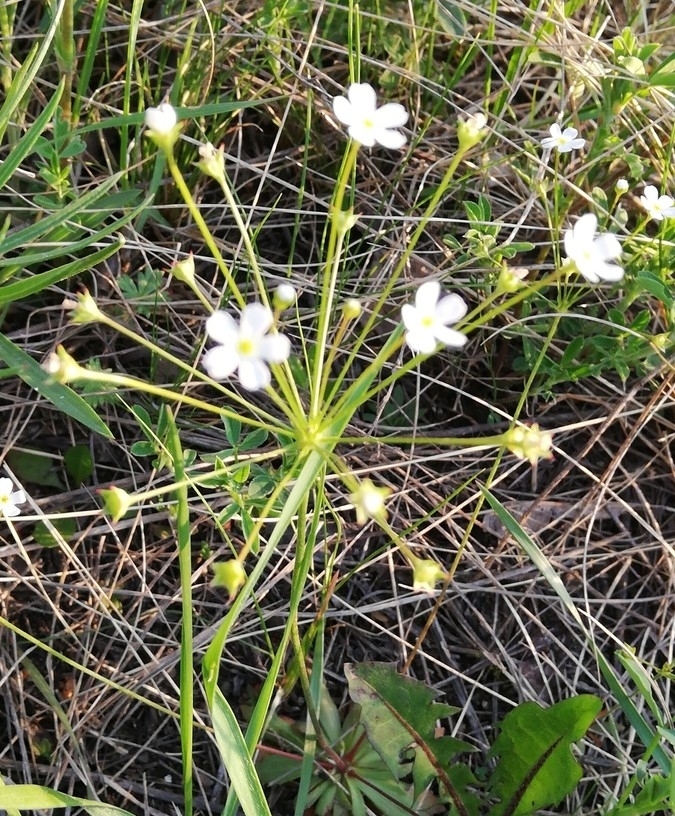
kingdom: Plantae
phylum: Tracheophyta
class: Magnoliopsida
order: Ericales
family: Primulaceae
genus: Androsace
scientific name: Androsace lactiflora
